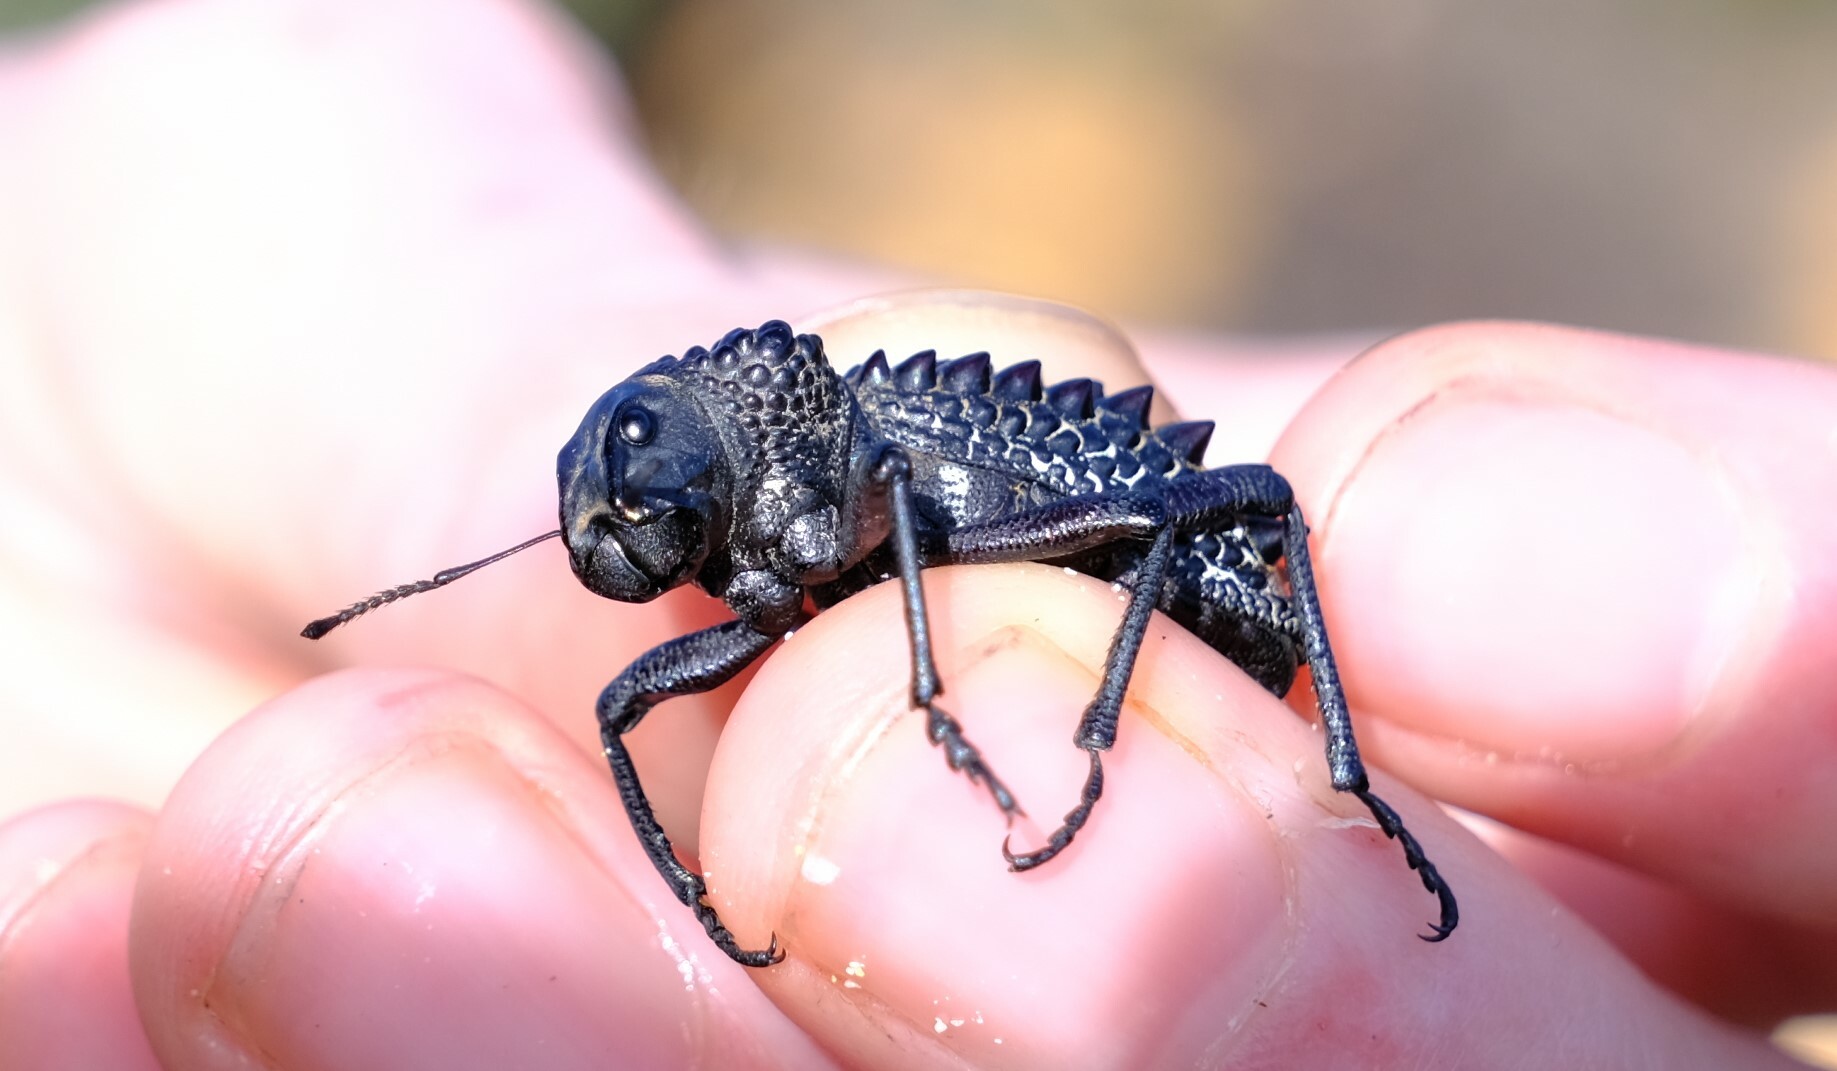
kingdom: Animalia
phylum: Arthropoda
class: Insecta
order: Coleoptera
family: Curculionidae
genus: Gagatophorus
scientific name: Gagatophorus
